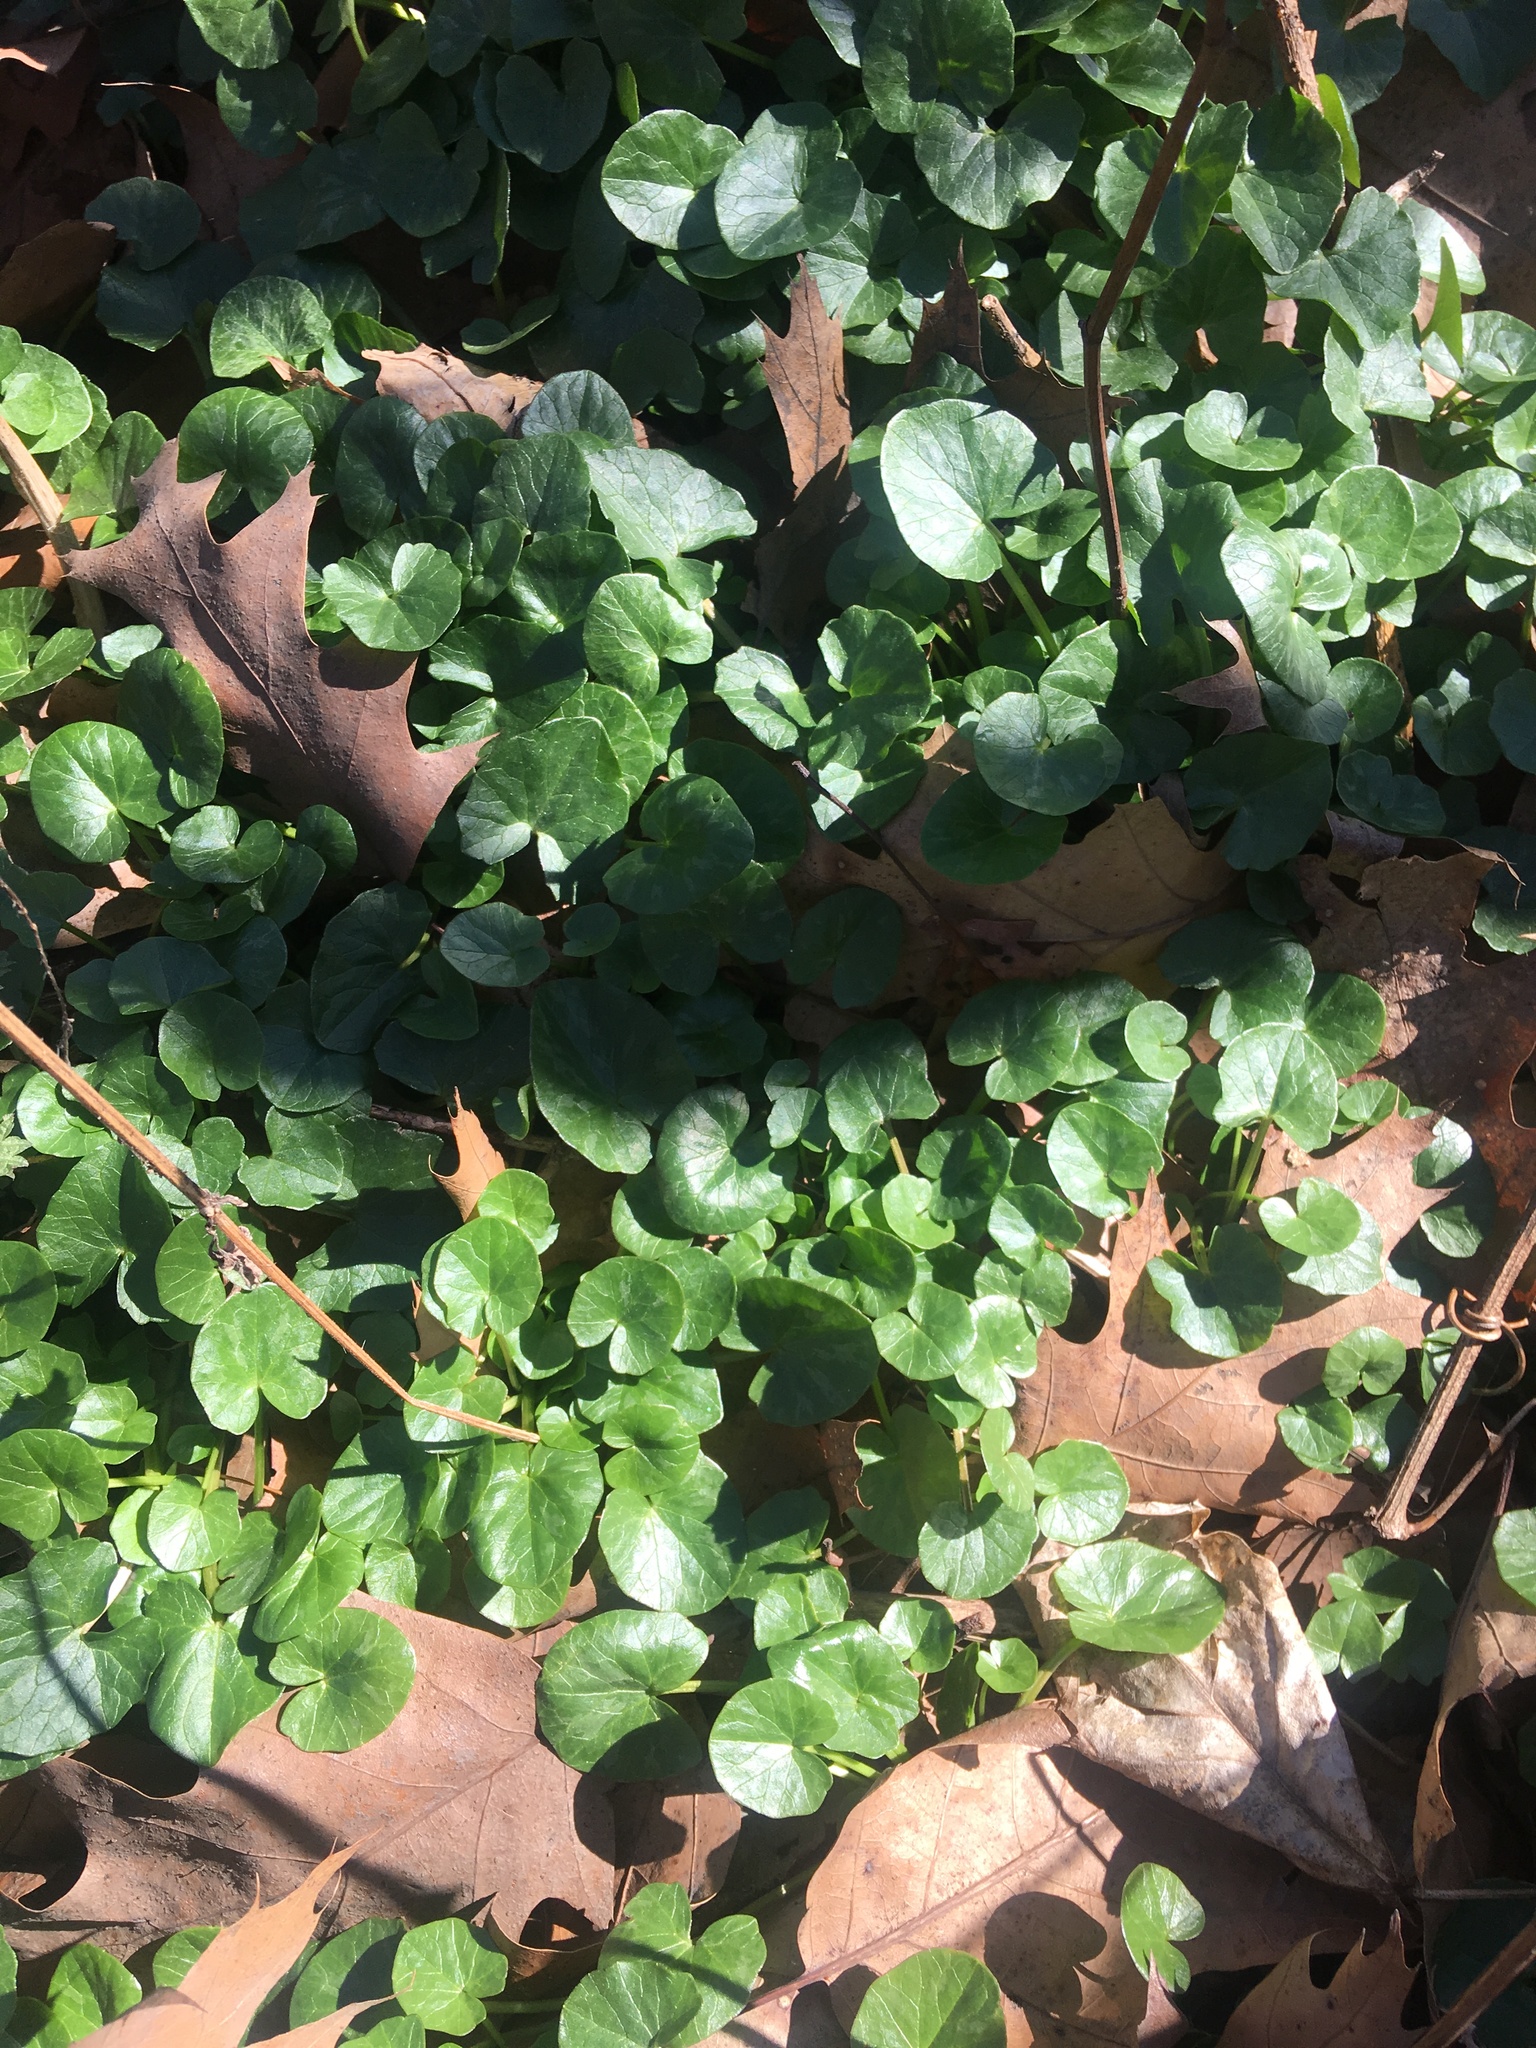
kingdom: Plantae
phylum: Tracheophyta
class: Magnoliopsida
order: Ranunculales
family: Ranunculaceae
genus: Ficaria
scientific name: Ficaria verna
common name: Lesser celandine
